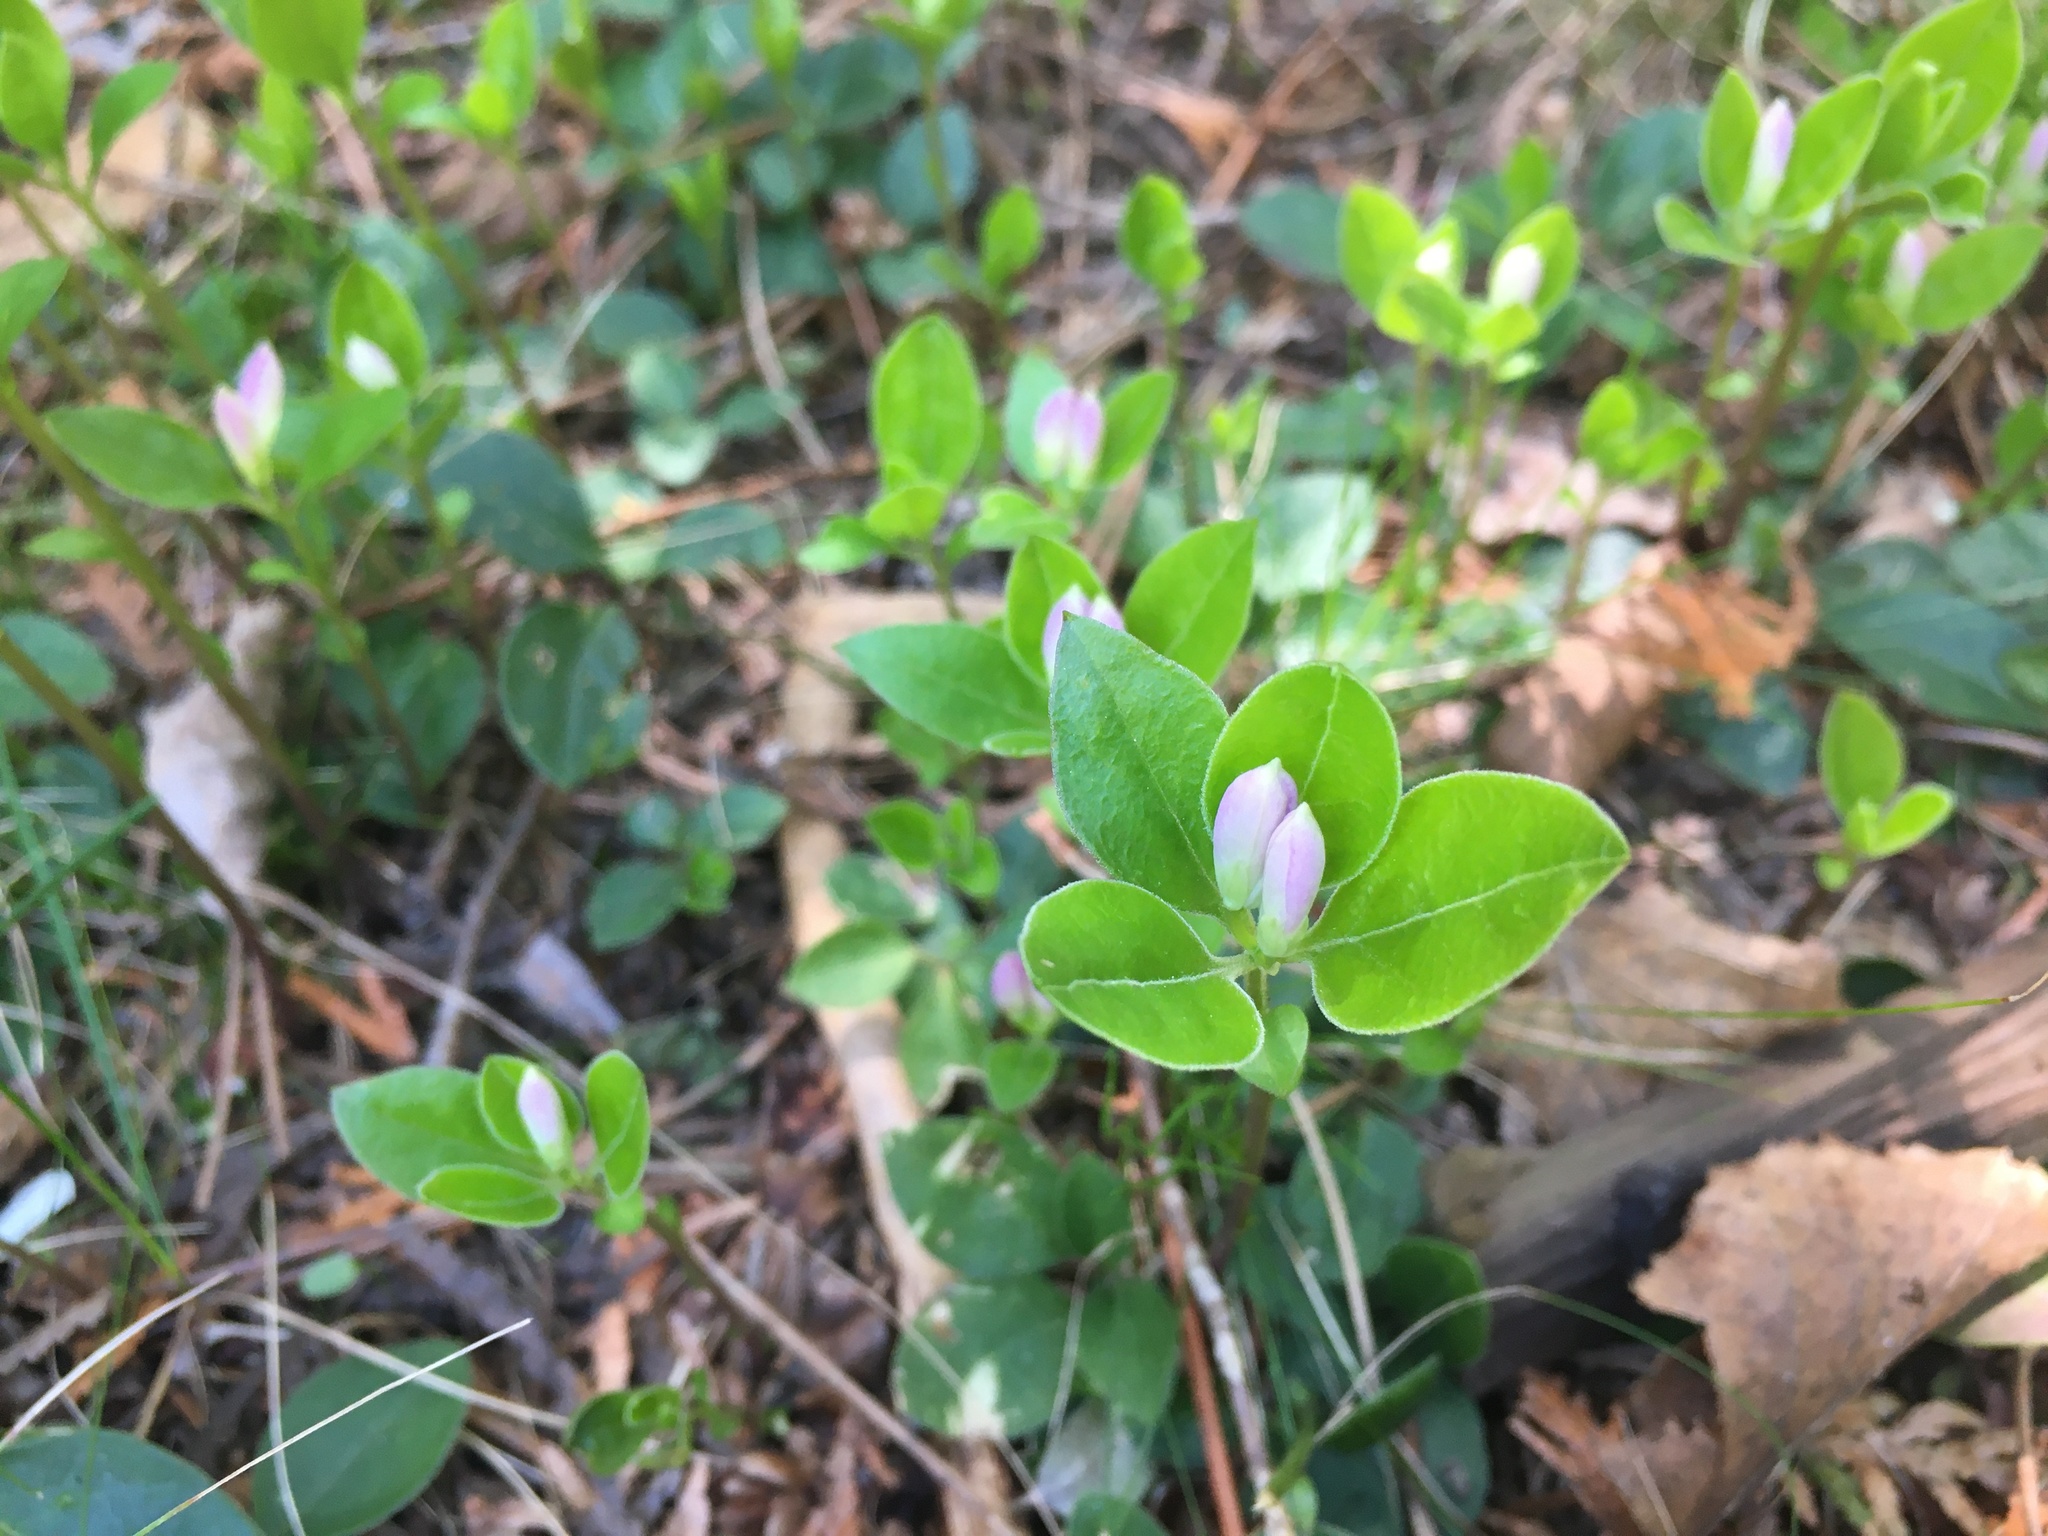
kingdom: Plantae
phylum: Tracheophyta
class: Magnoliopsida
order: Fabales
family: Polygalaceae
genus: Polygaloides
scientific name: Polygaloides paucifolia
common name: Bird-on-the-wing
